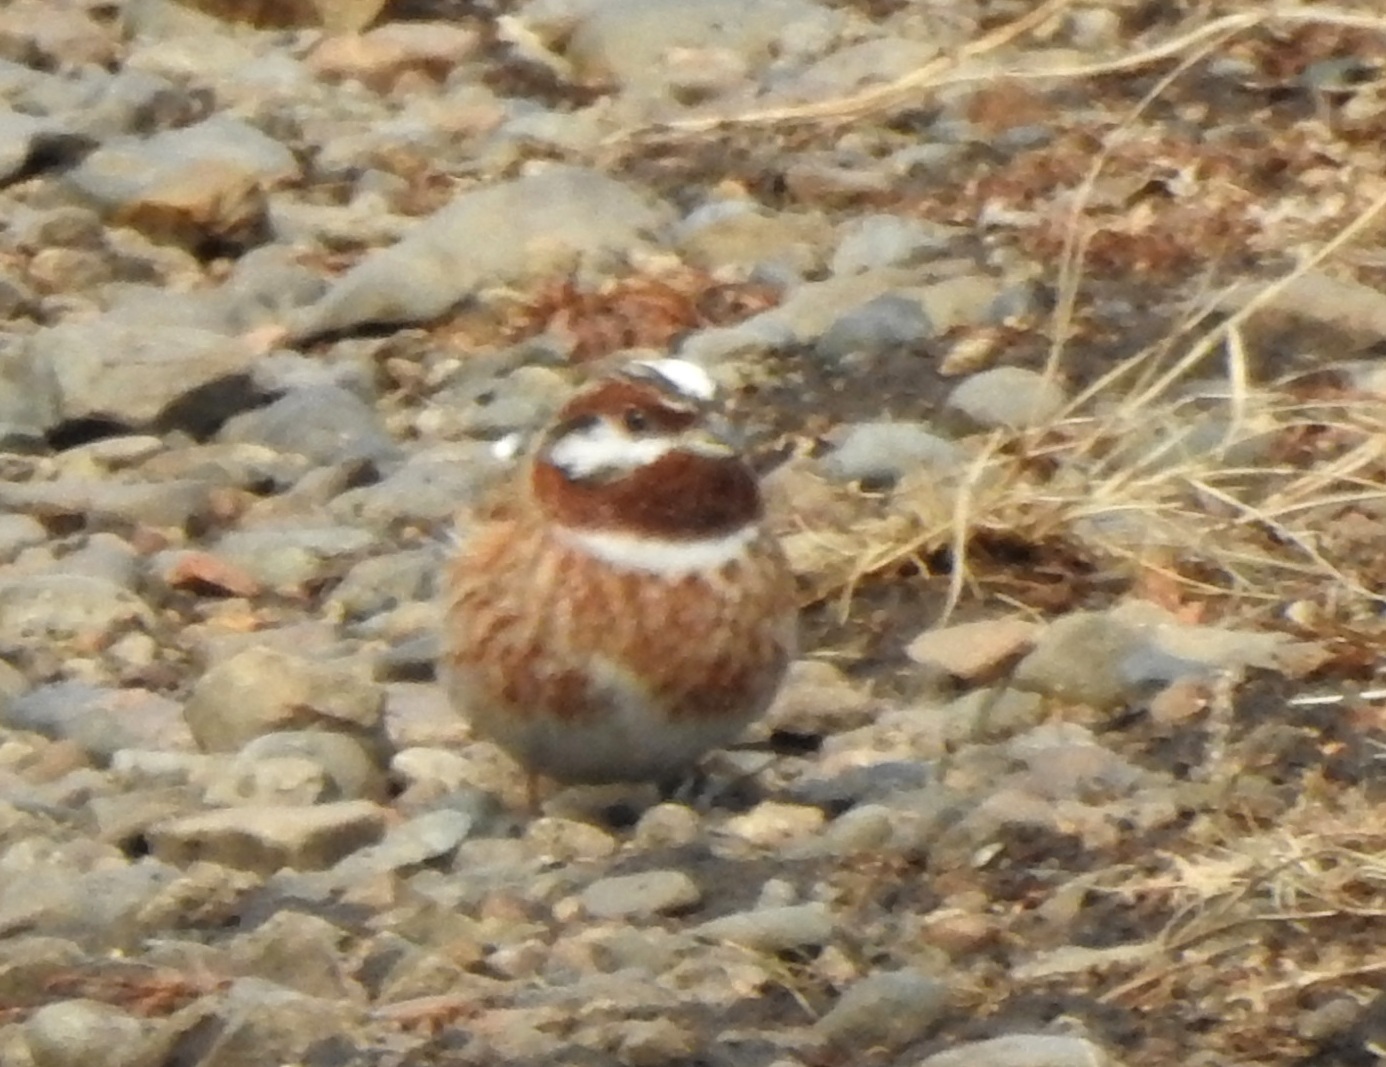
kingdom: Animalia
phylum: Chordata
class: Aves
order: Passeriformes
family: Emberizidae
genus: Emberiza
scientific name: Emberiza leucocephalos
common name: Pine bunting
